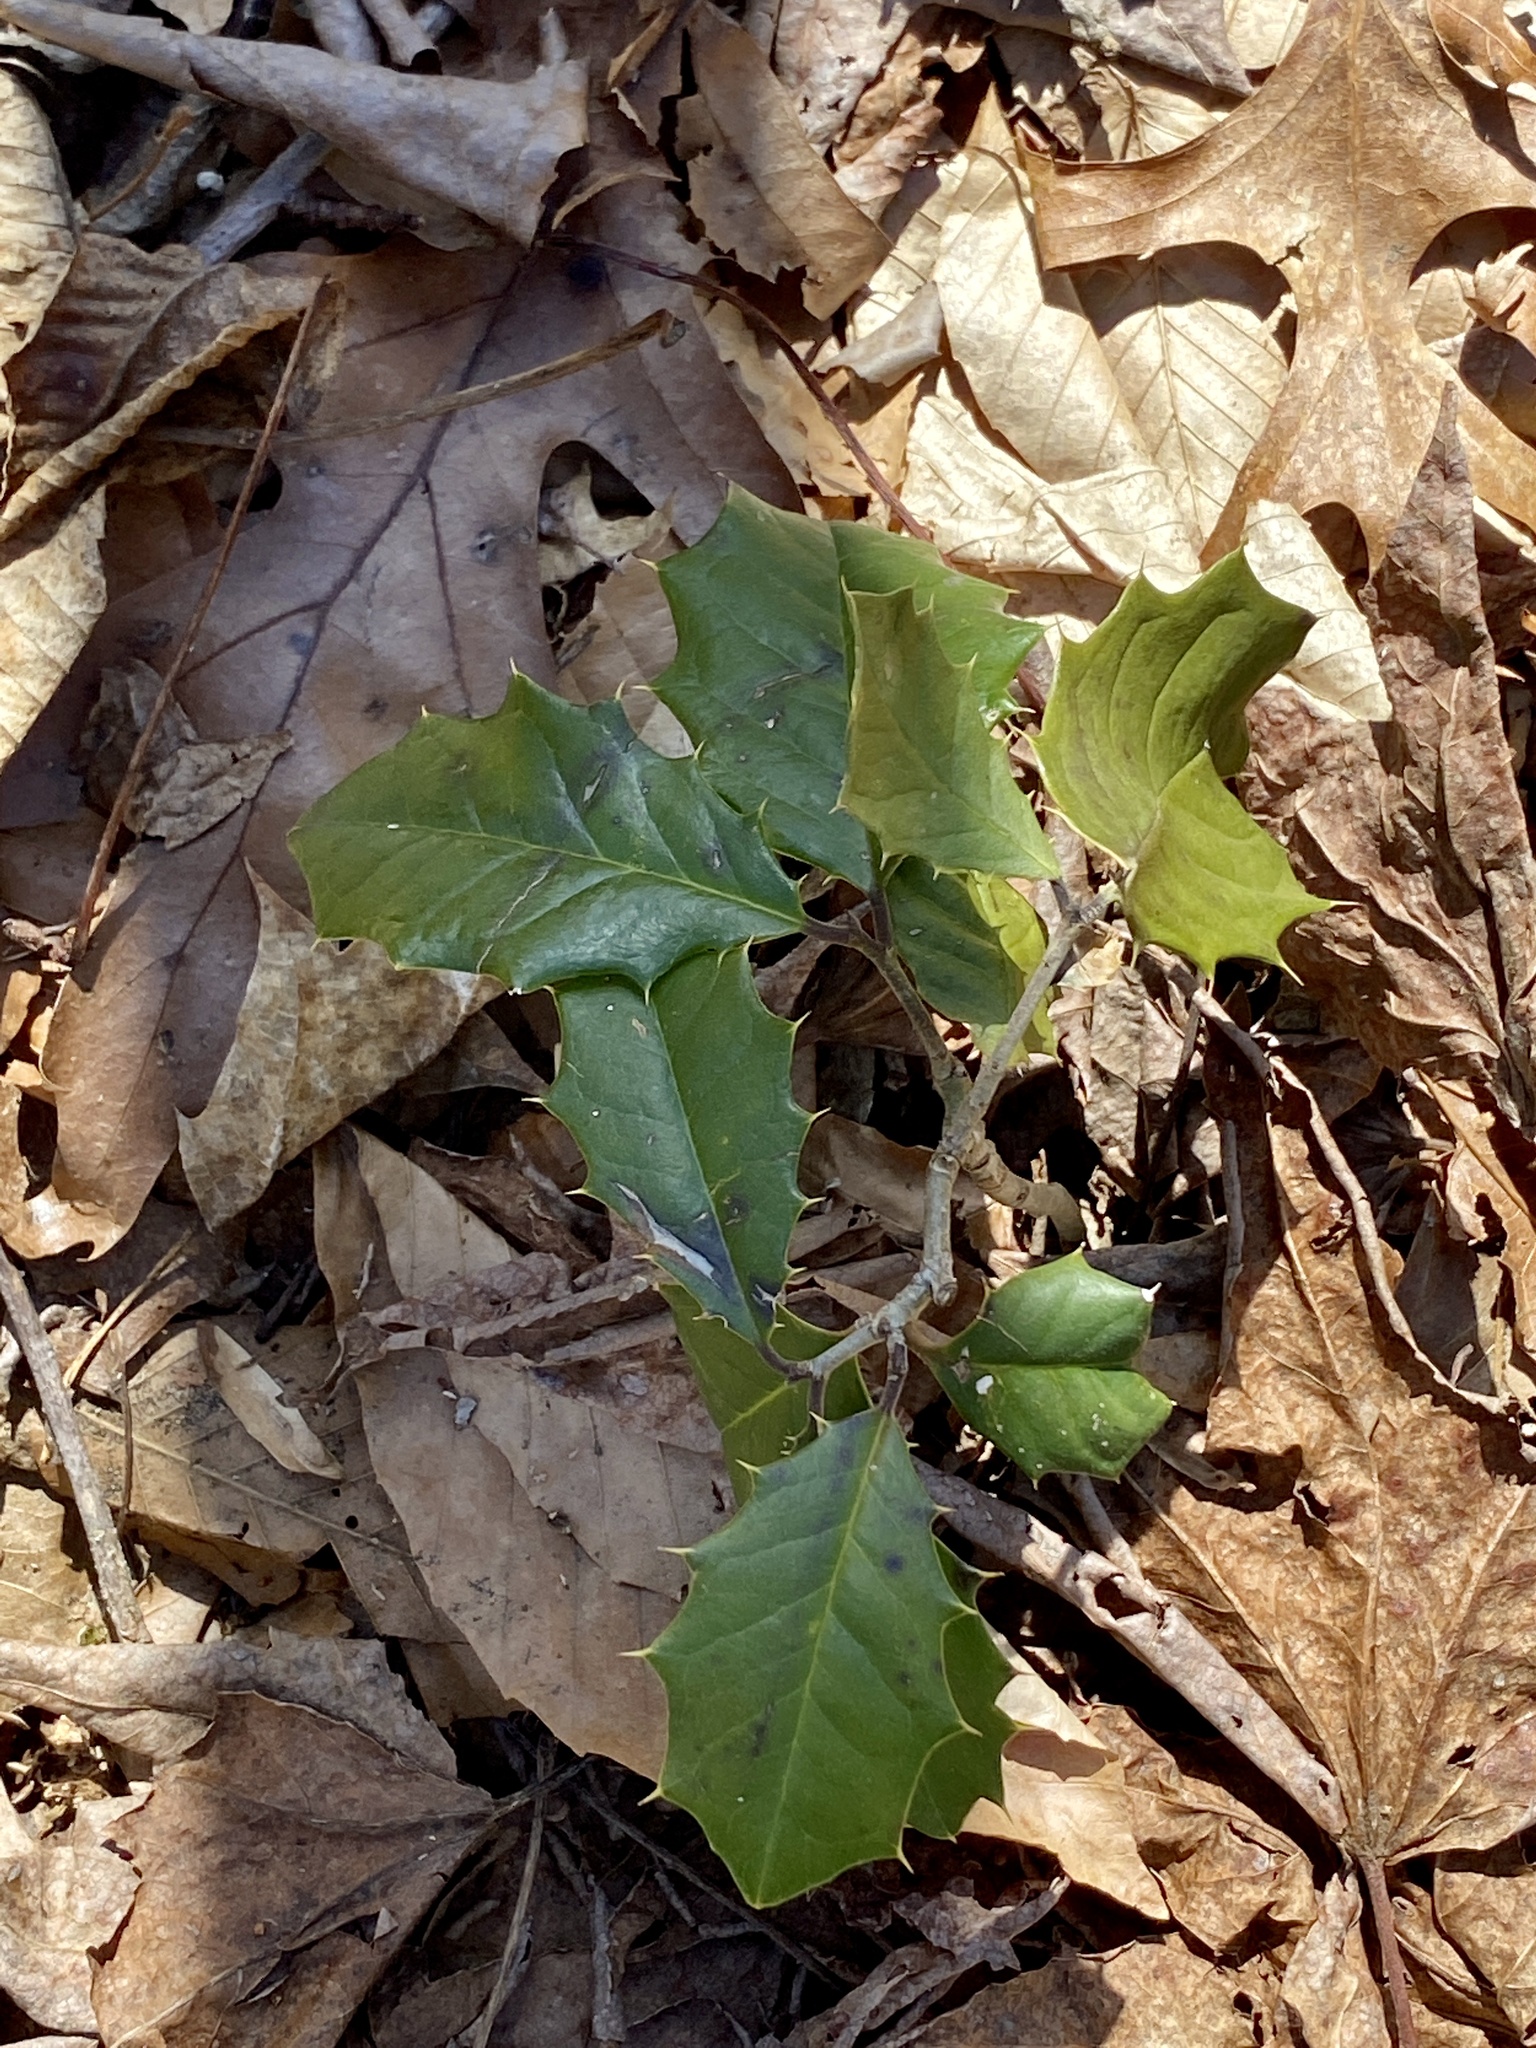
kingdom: Plantae
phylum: Tracheophyta
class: Magnoliopsida
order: Aquifoliales
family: Aquifoliaceae
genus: Ilex
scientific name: Ilex opaca
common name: American holly
